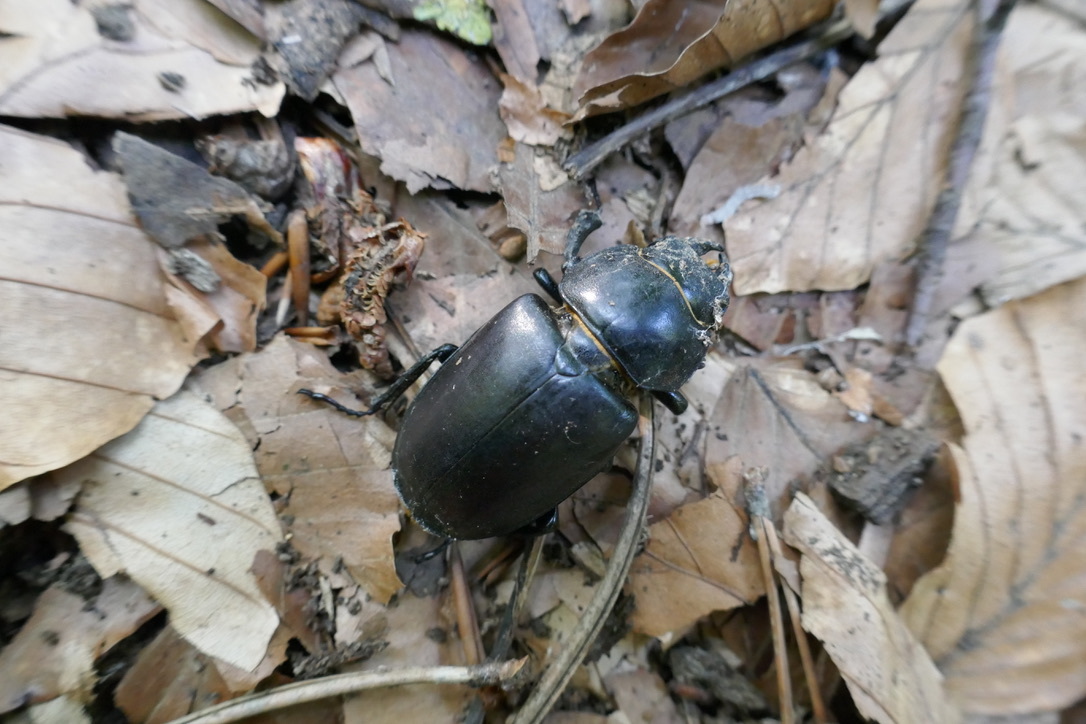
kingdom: Animalia
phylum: Arthropoda
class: Insecta
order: Coleoptera
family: Lucanidae
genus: Lucanus
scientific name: Lucanus cervus
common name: Stag beetle
